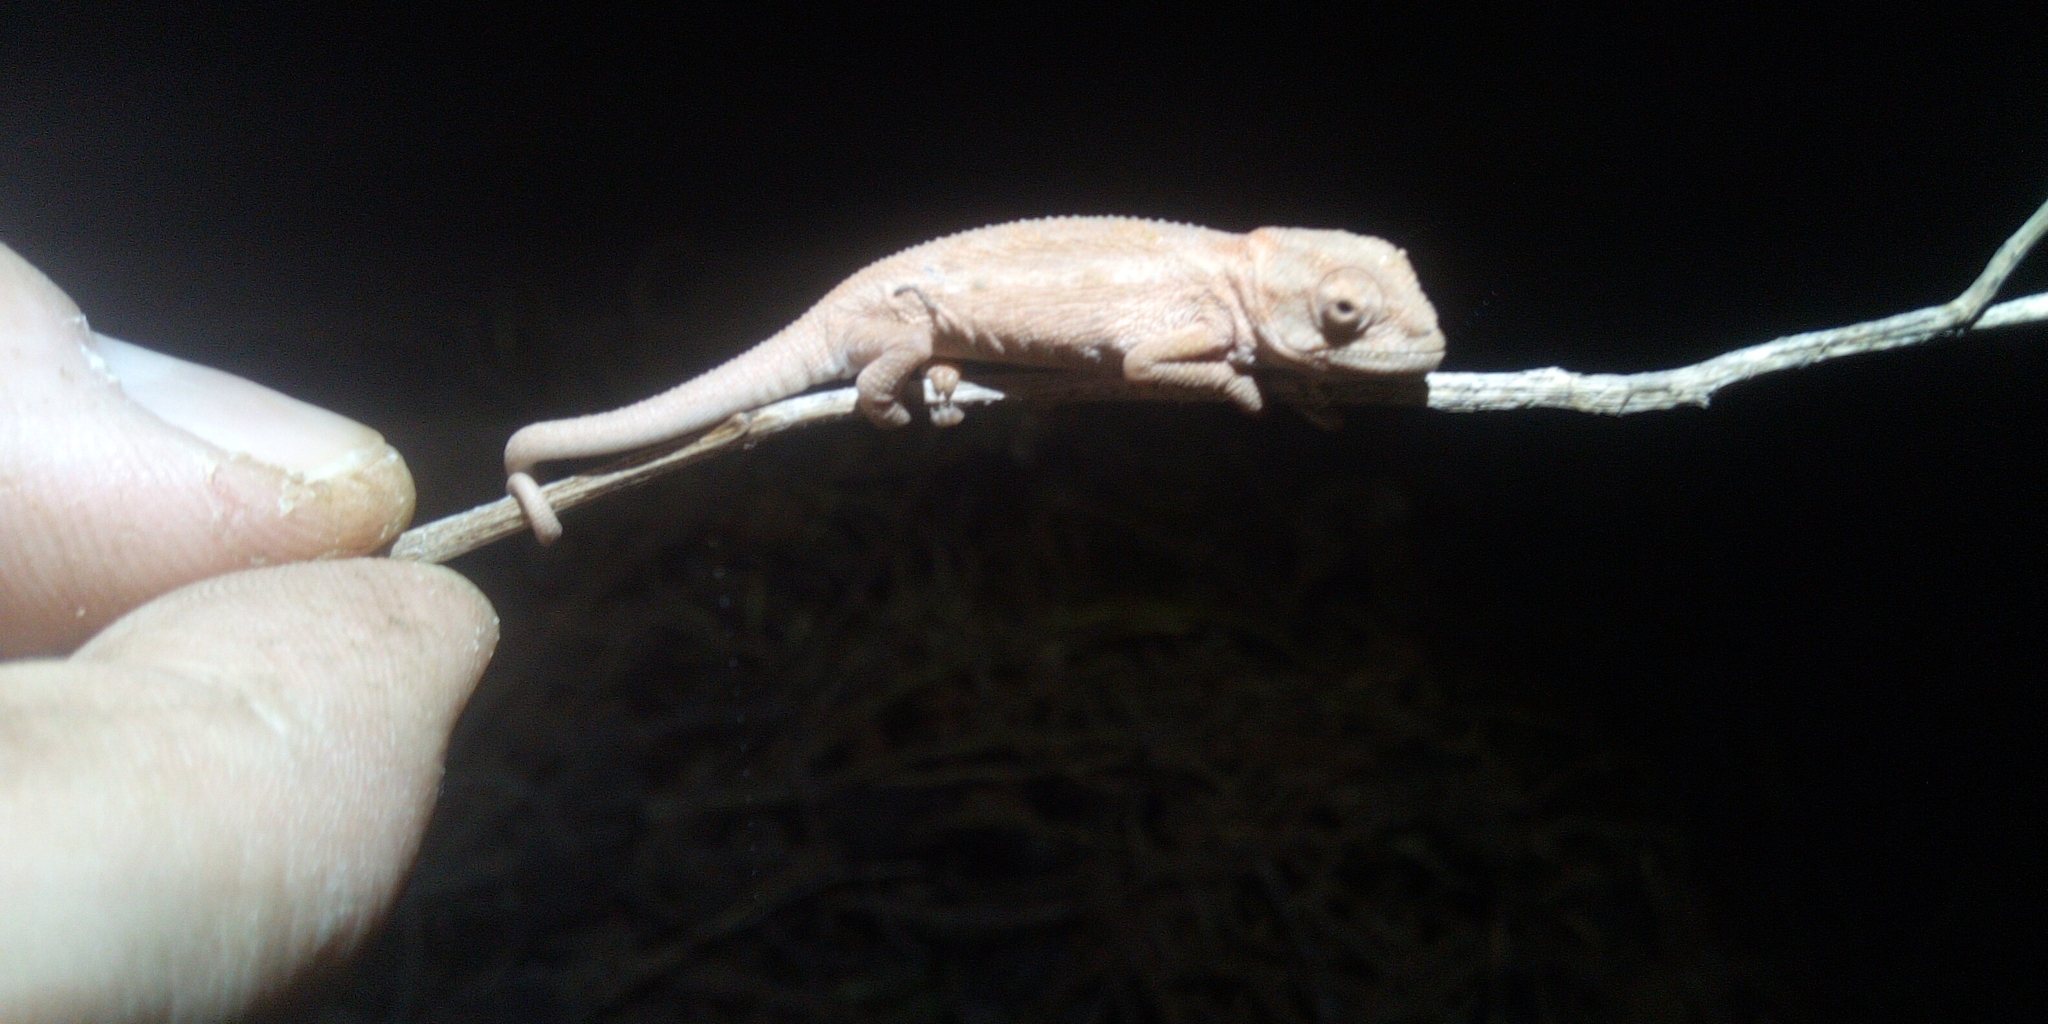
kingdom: Animalia
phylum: Chordata
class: Squamata
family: Chamaeleonidae
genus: Bradypodion
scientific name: Bradypodion pumilum
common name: Cape dwarf chameleon
